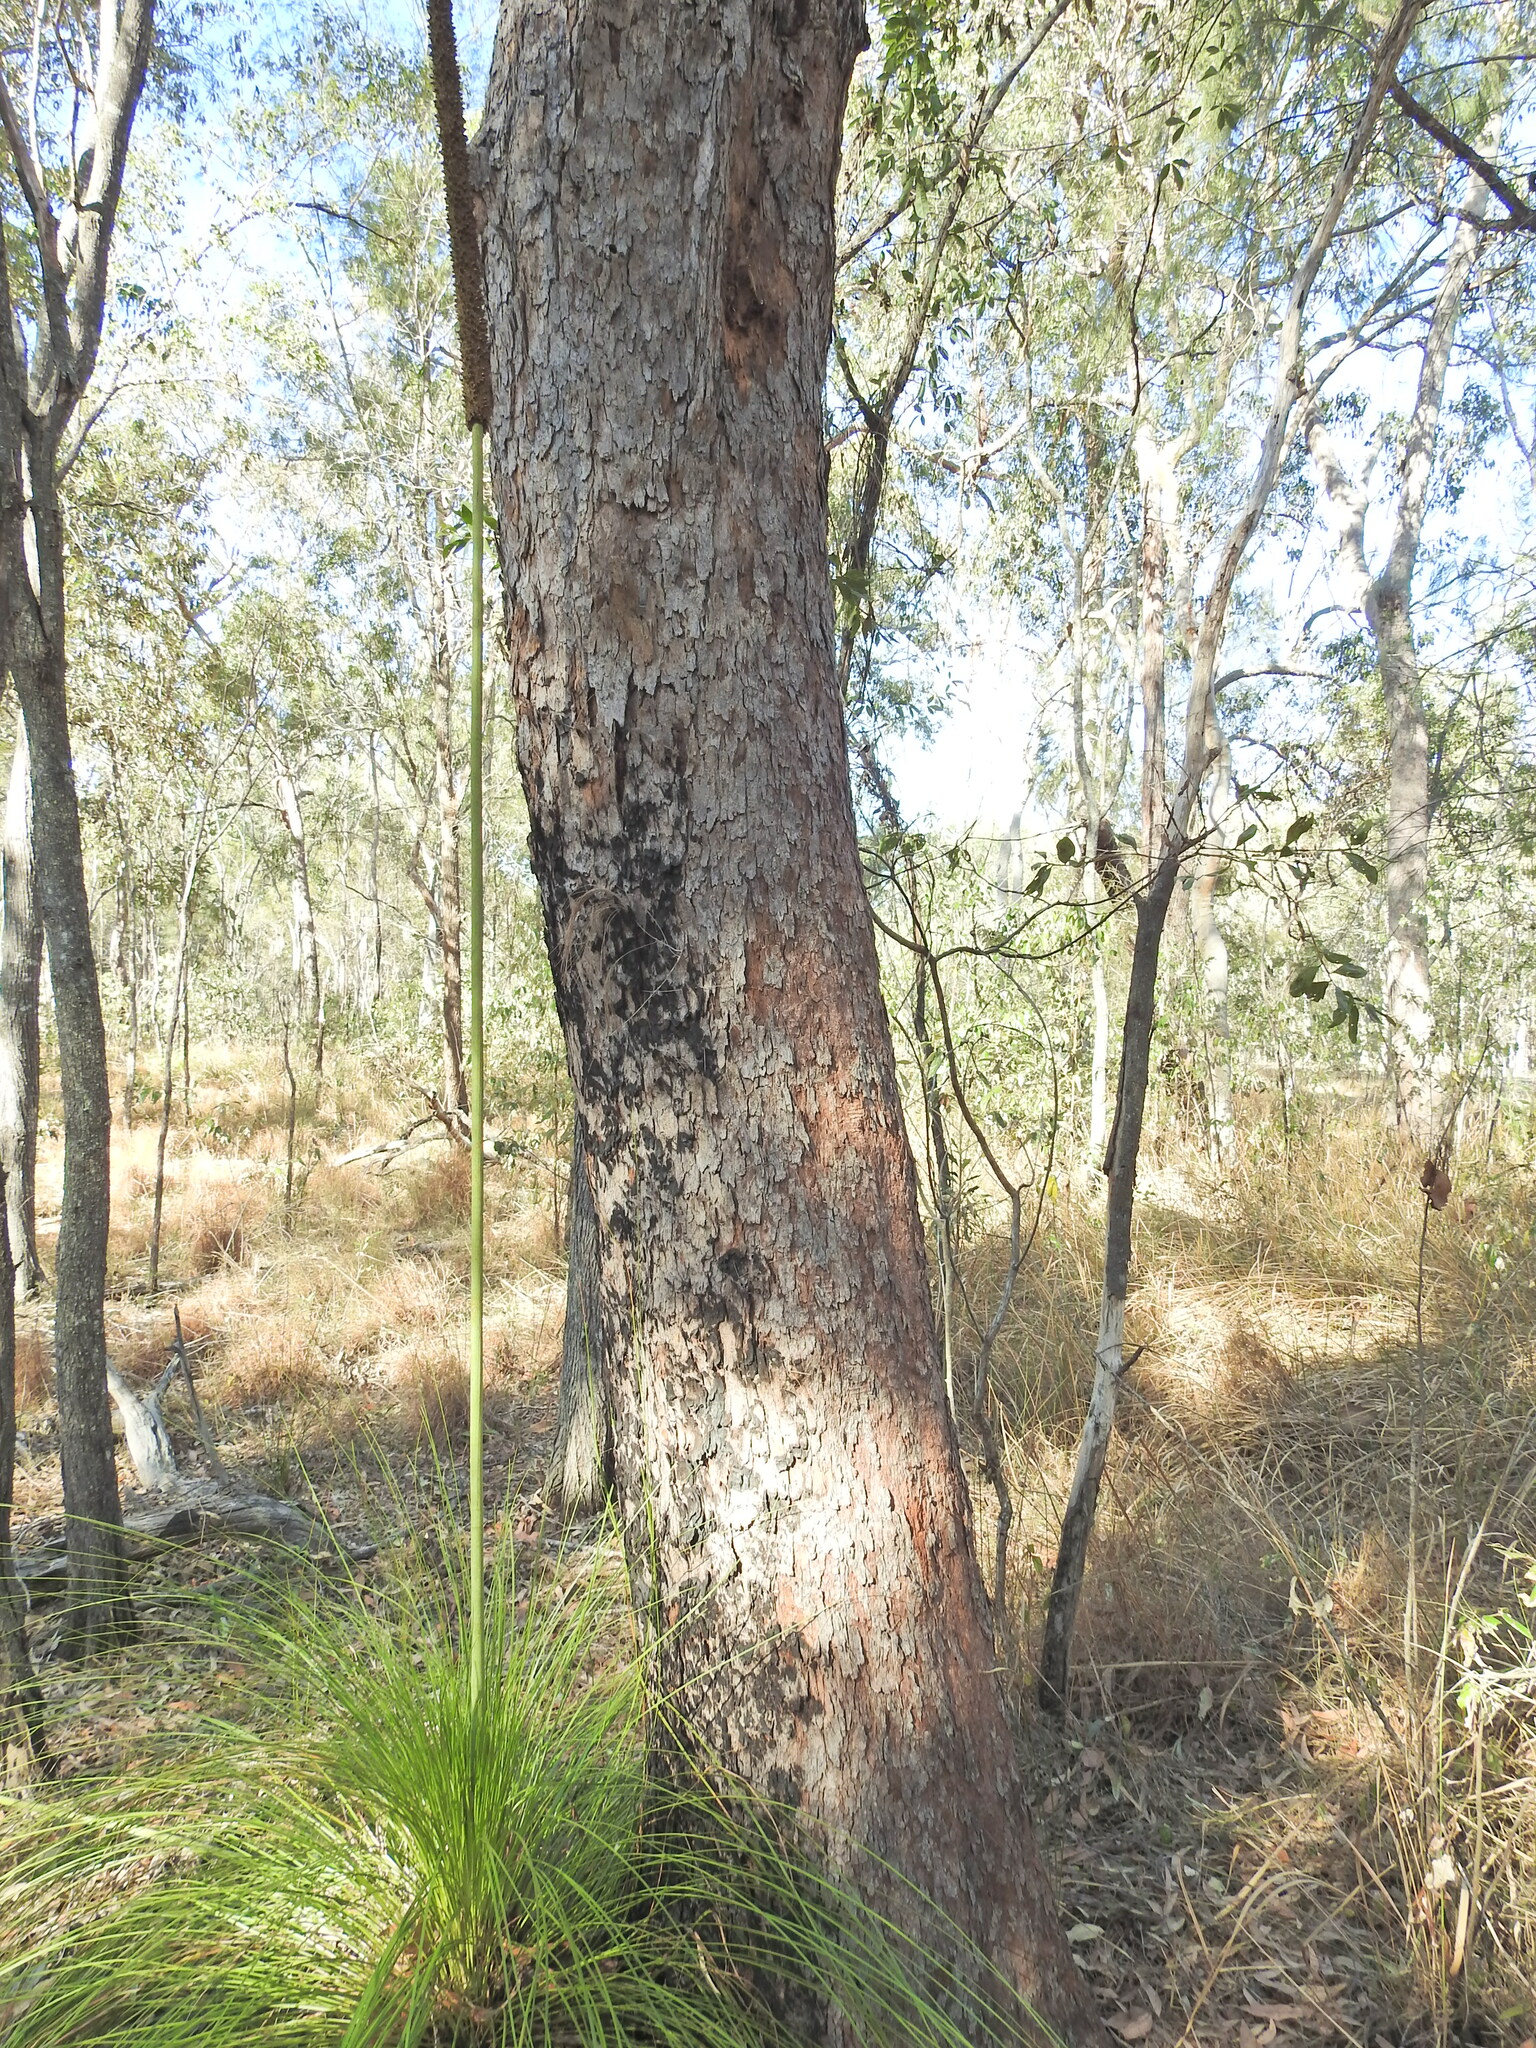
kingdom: Plantae
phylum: Tracheophyta
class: Magnoliopsida
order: Myrtales
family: Myrtaceae
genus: Corymbia
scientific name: Corymbia intermedia
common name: Pink-bloodwood
